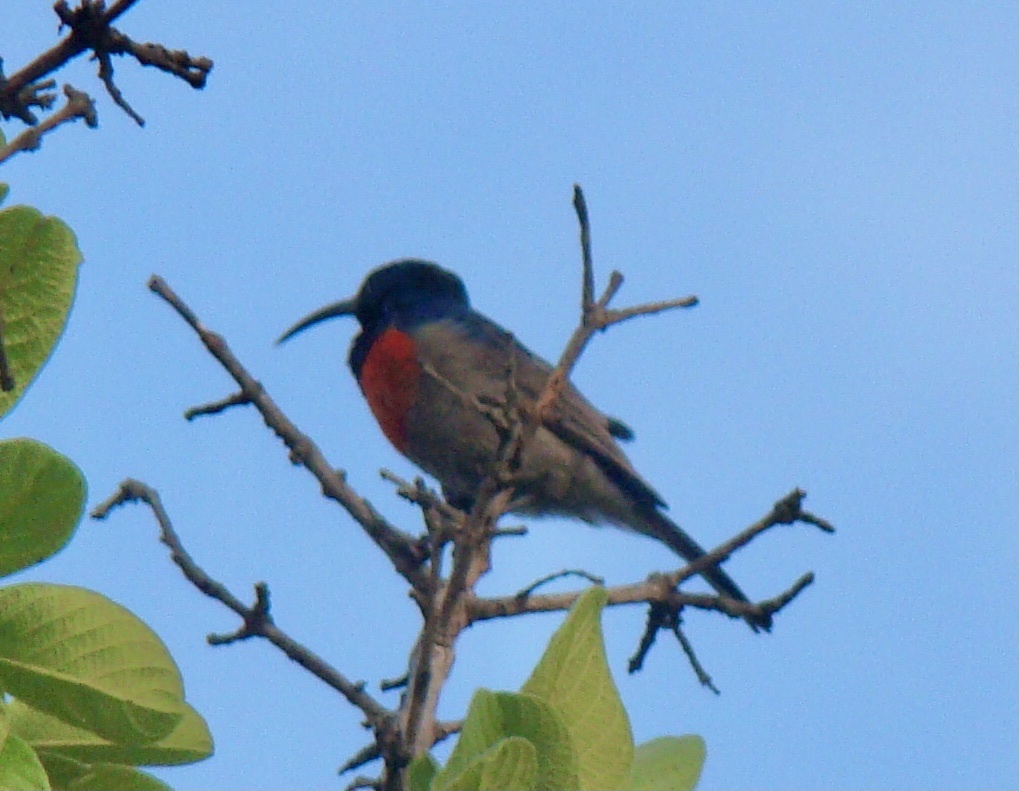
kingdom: Animalia
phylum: Chordata
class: Aves
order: Passeriformes
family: Nectariniidae
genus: Cinnyris
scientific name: Cinnyris afer
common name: Greater double-collared sunbird
